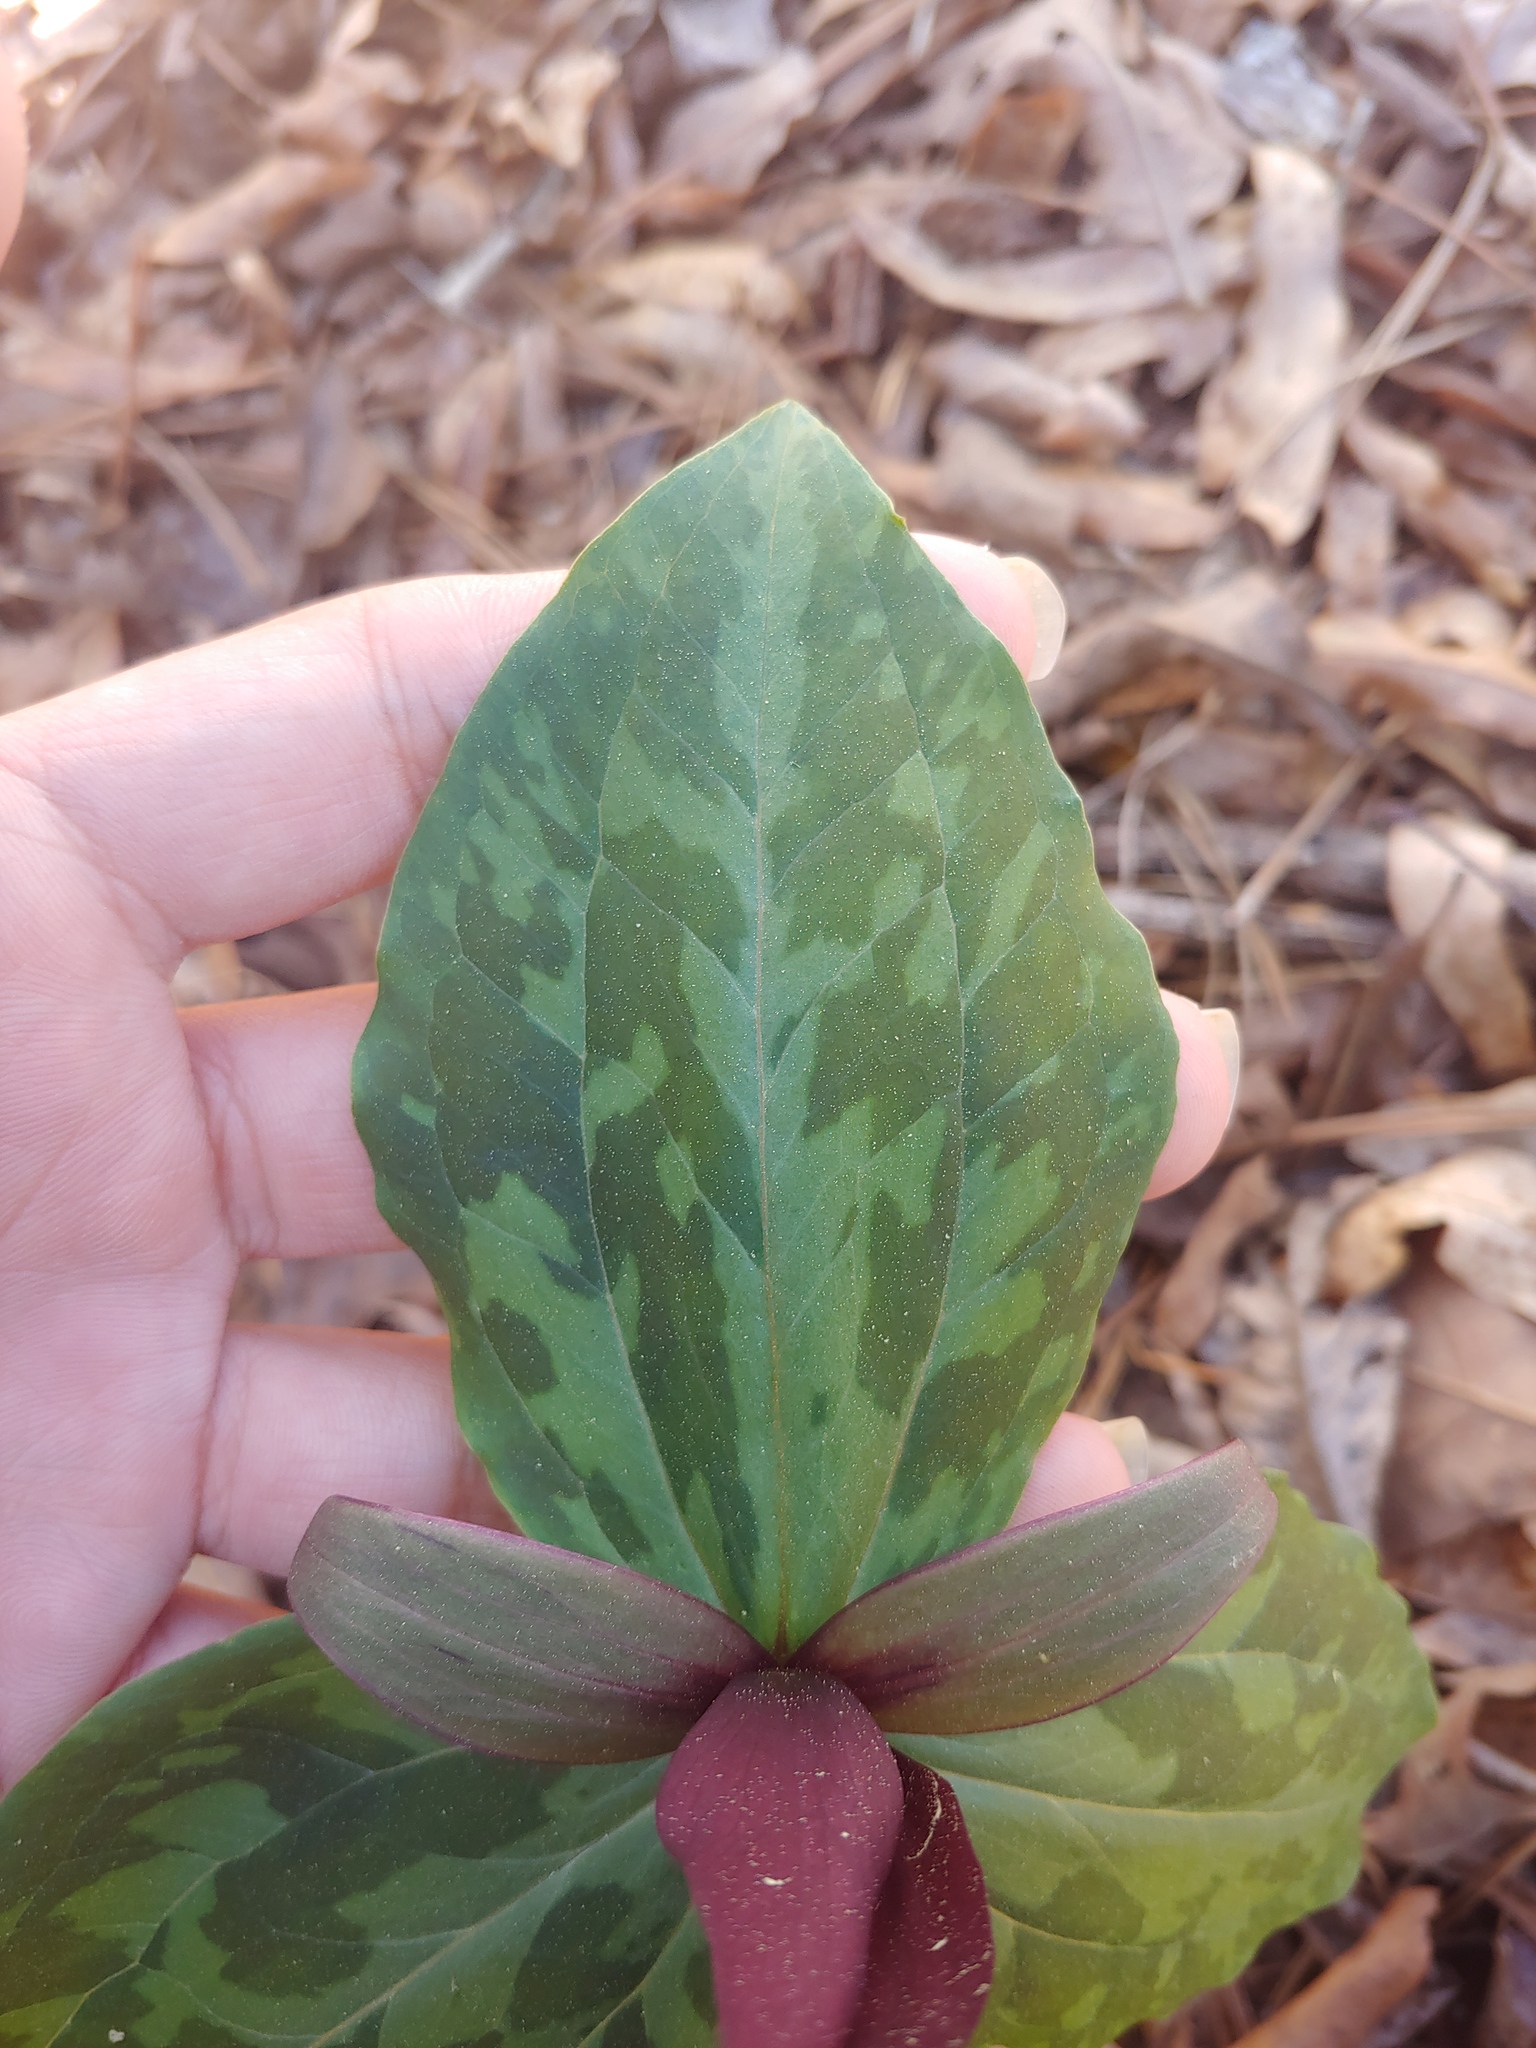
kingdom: Plantae
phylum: Tracheophyta
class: Liliopsida
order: Liliales
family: Melanthiaceae
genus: Trillium
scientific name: Trillium cuneatum
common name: Cuneate trillium
